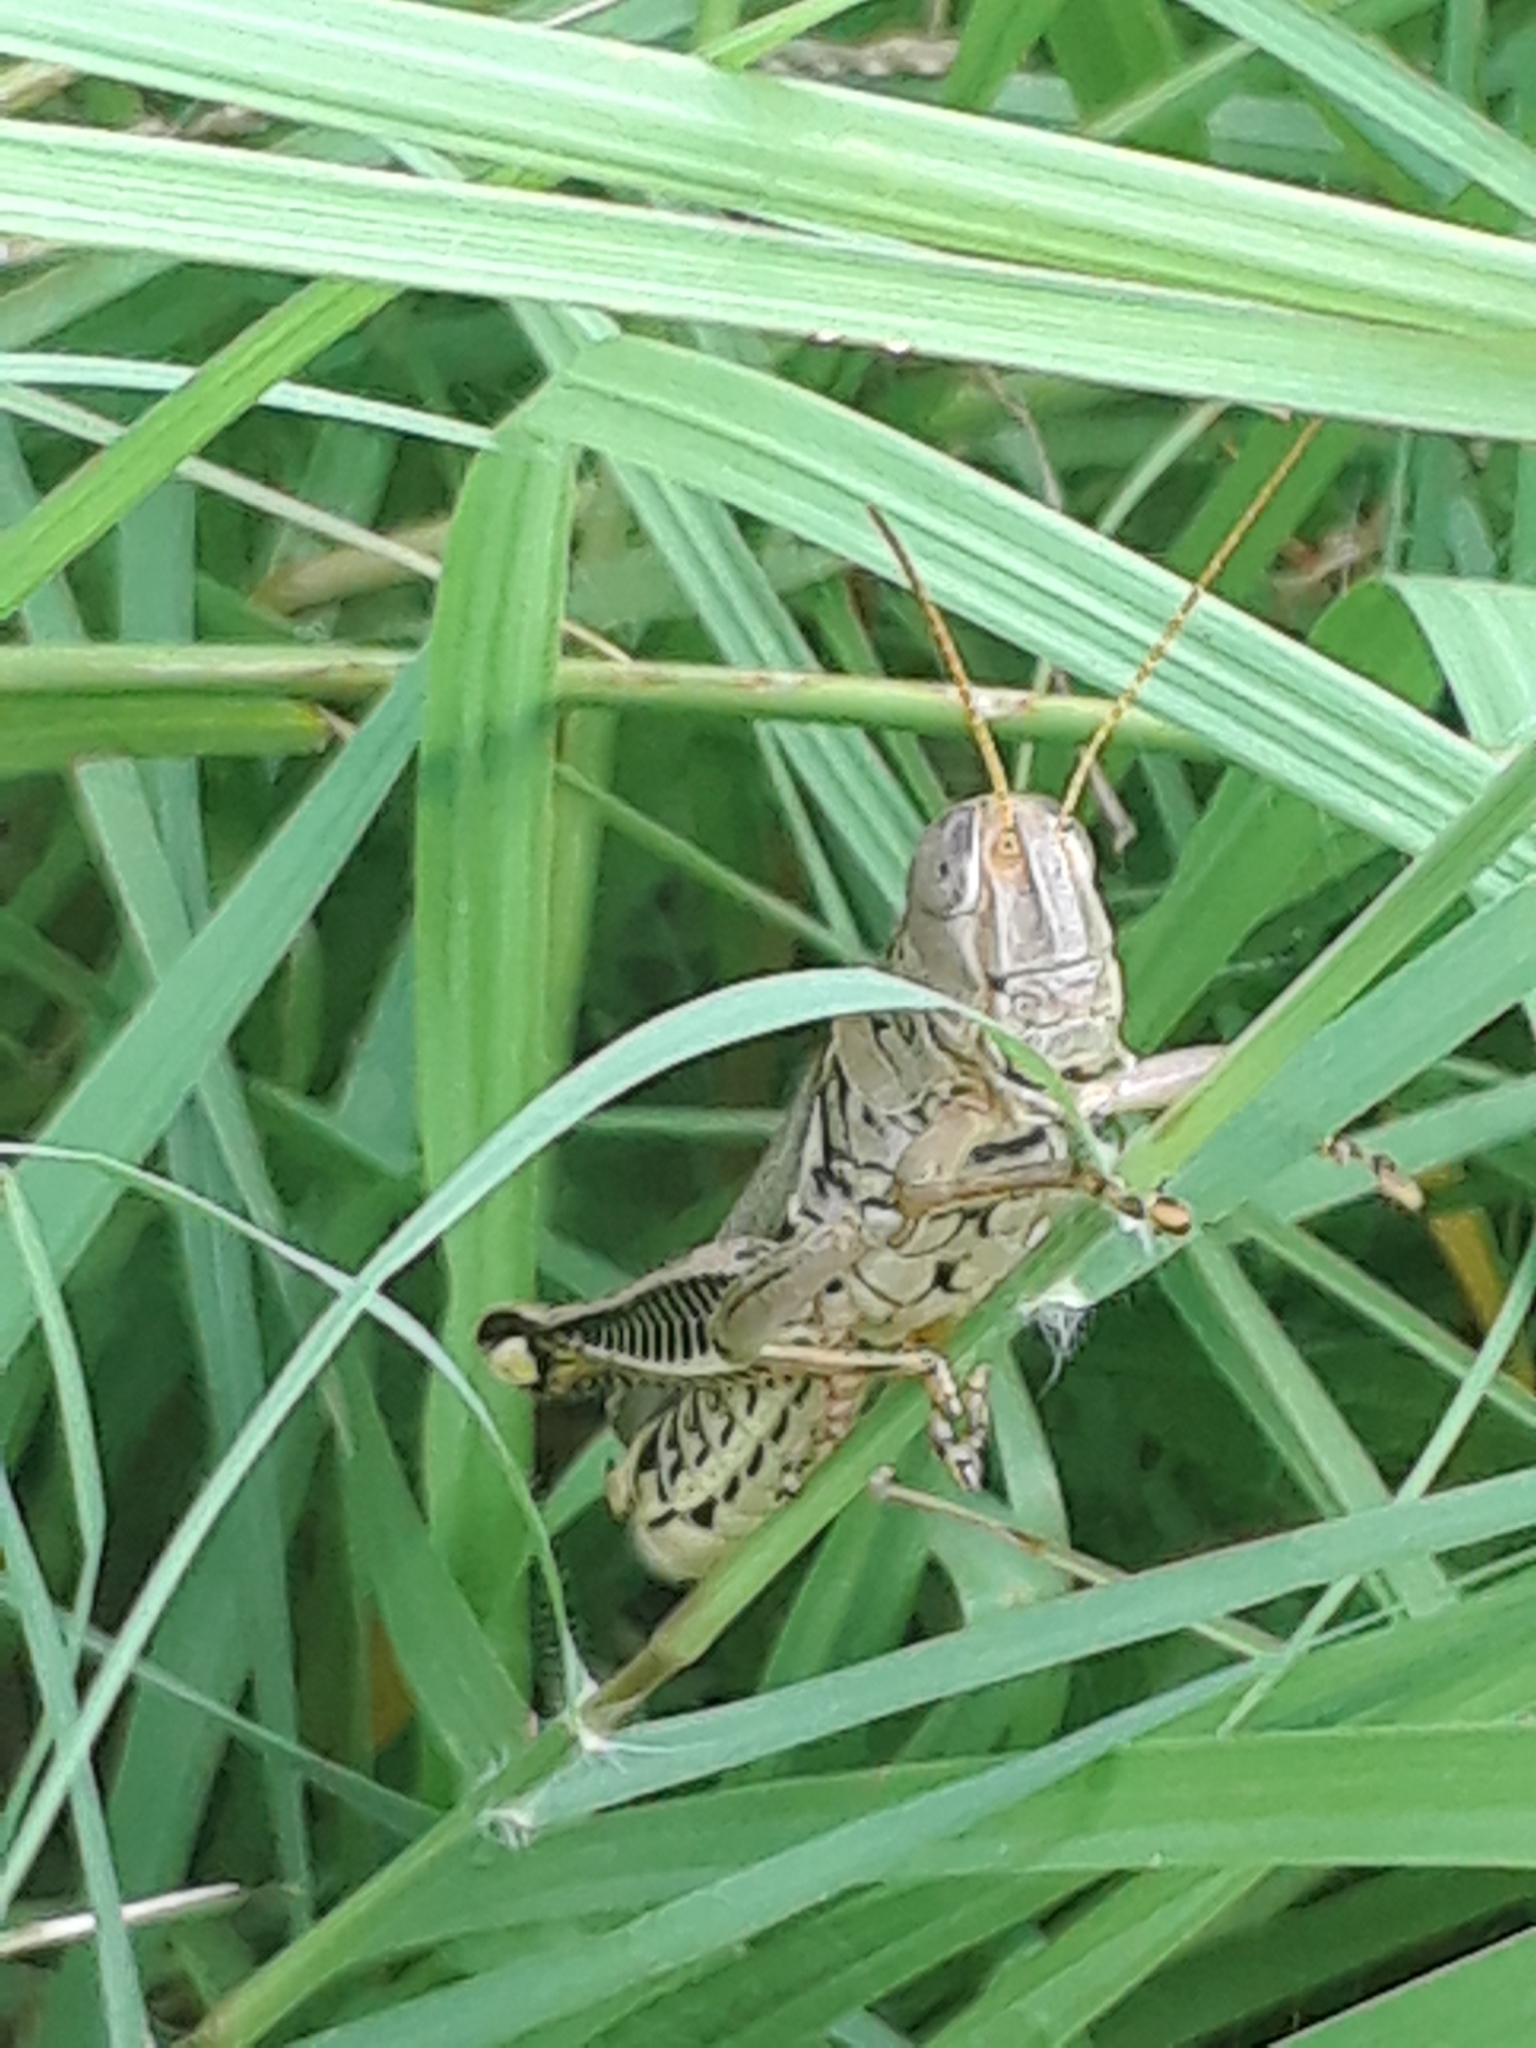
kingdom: Animalia
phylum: Arthropoda
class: Insecta
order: Orthoptera
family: Acrididae
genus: Melanoplus
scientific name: Melanoplus differentialis
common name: Differential grasshopper
